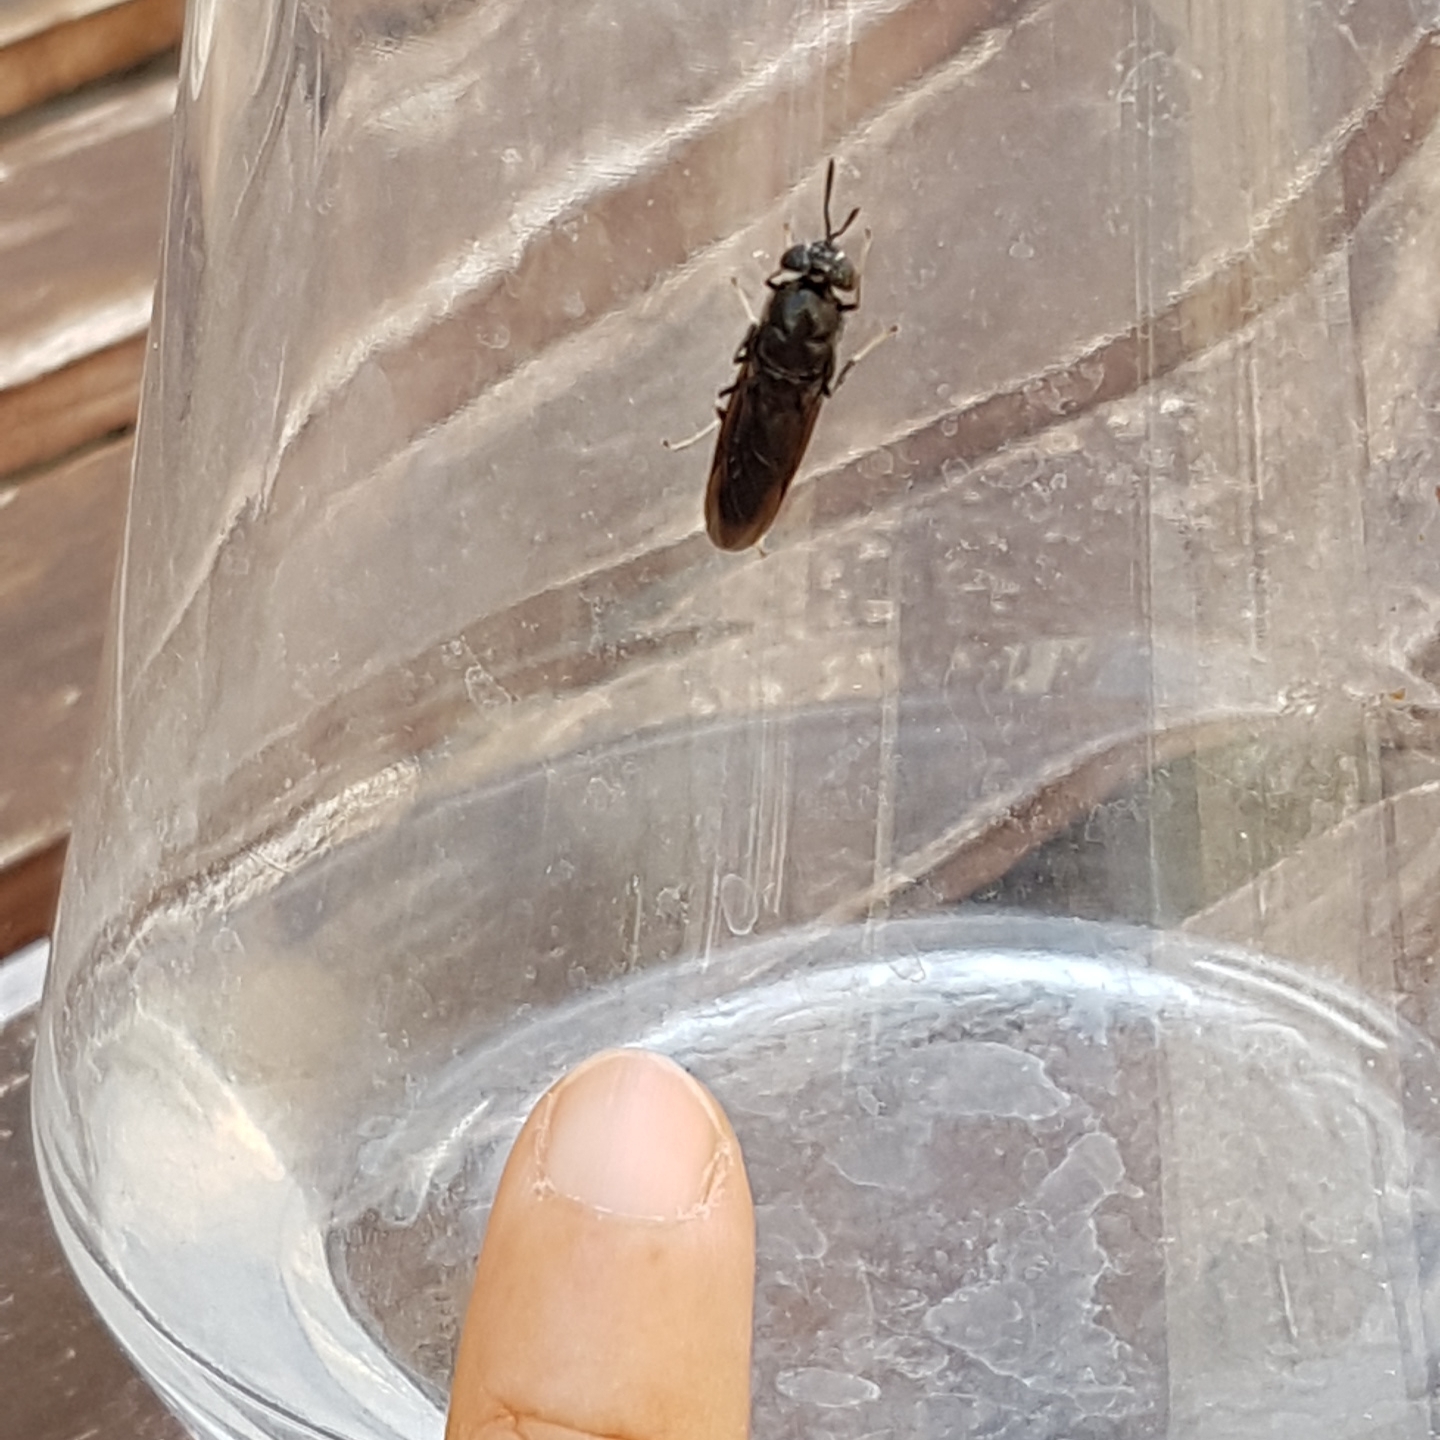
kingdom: Animalia
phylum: Arthropoda
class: Insecta
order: Diptera
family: Stratiomyidae
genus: Hermetia
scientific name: Hermetia illucens
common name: Black soldier fly
